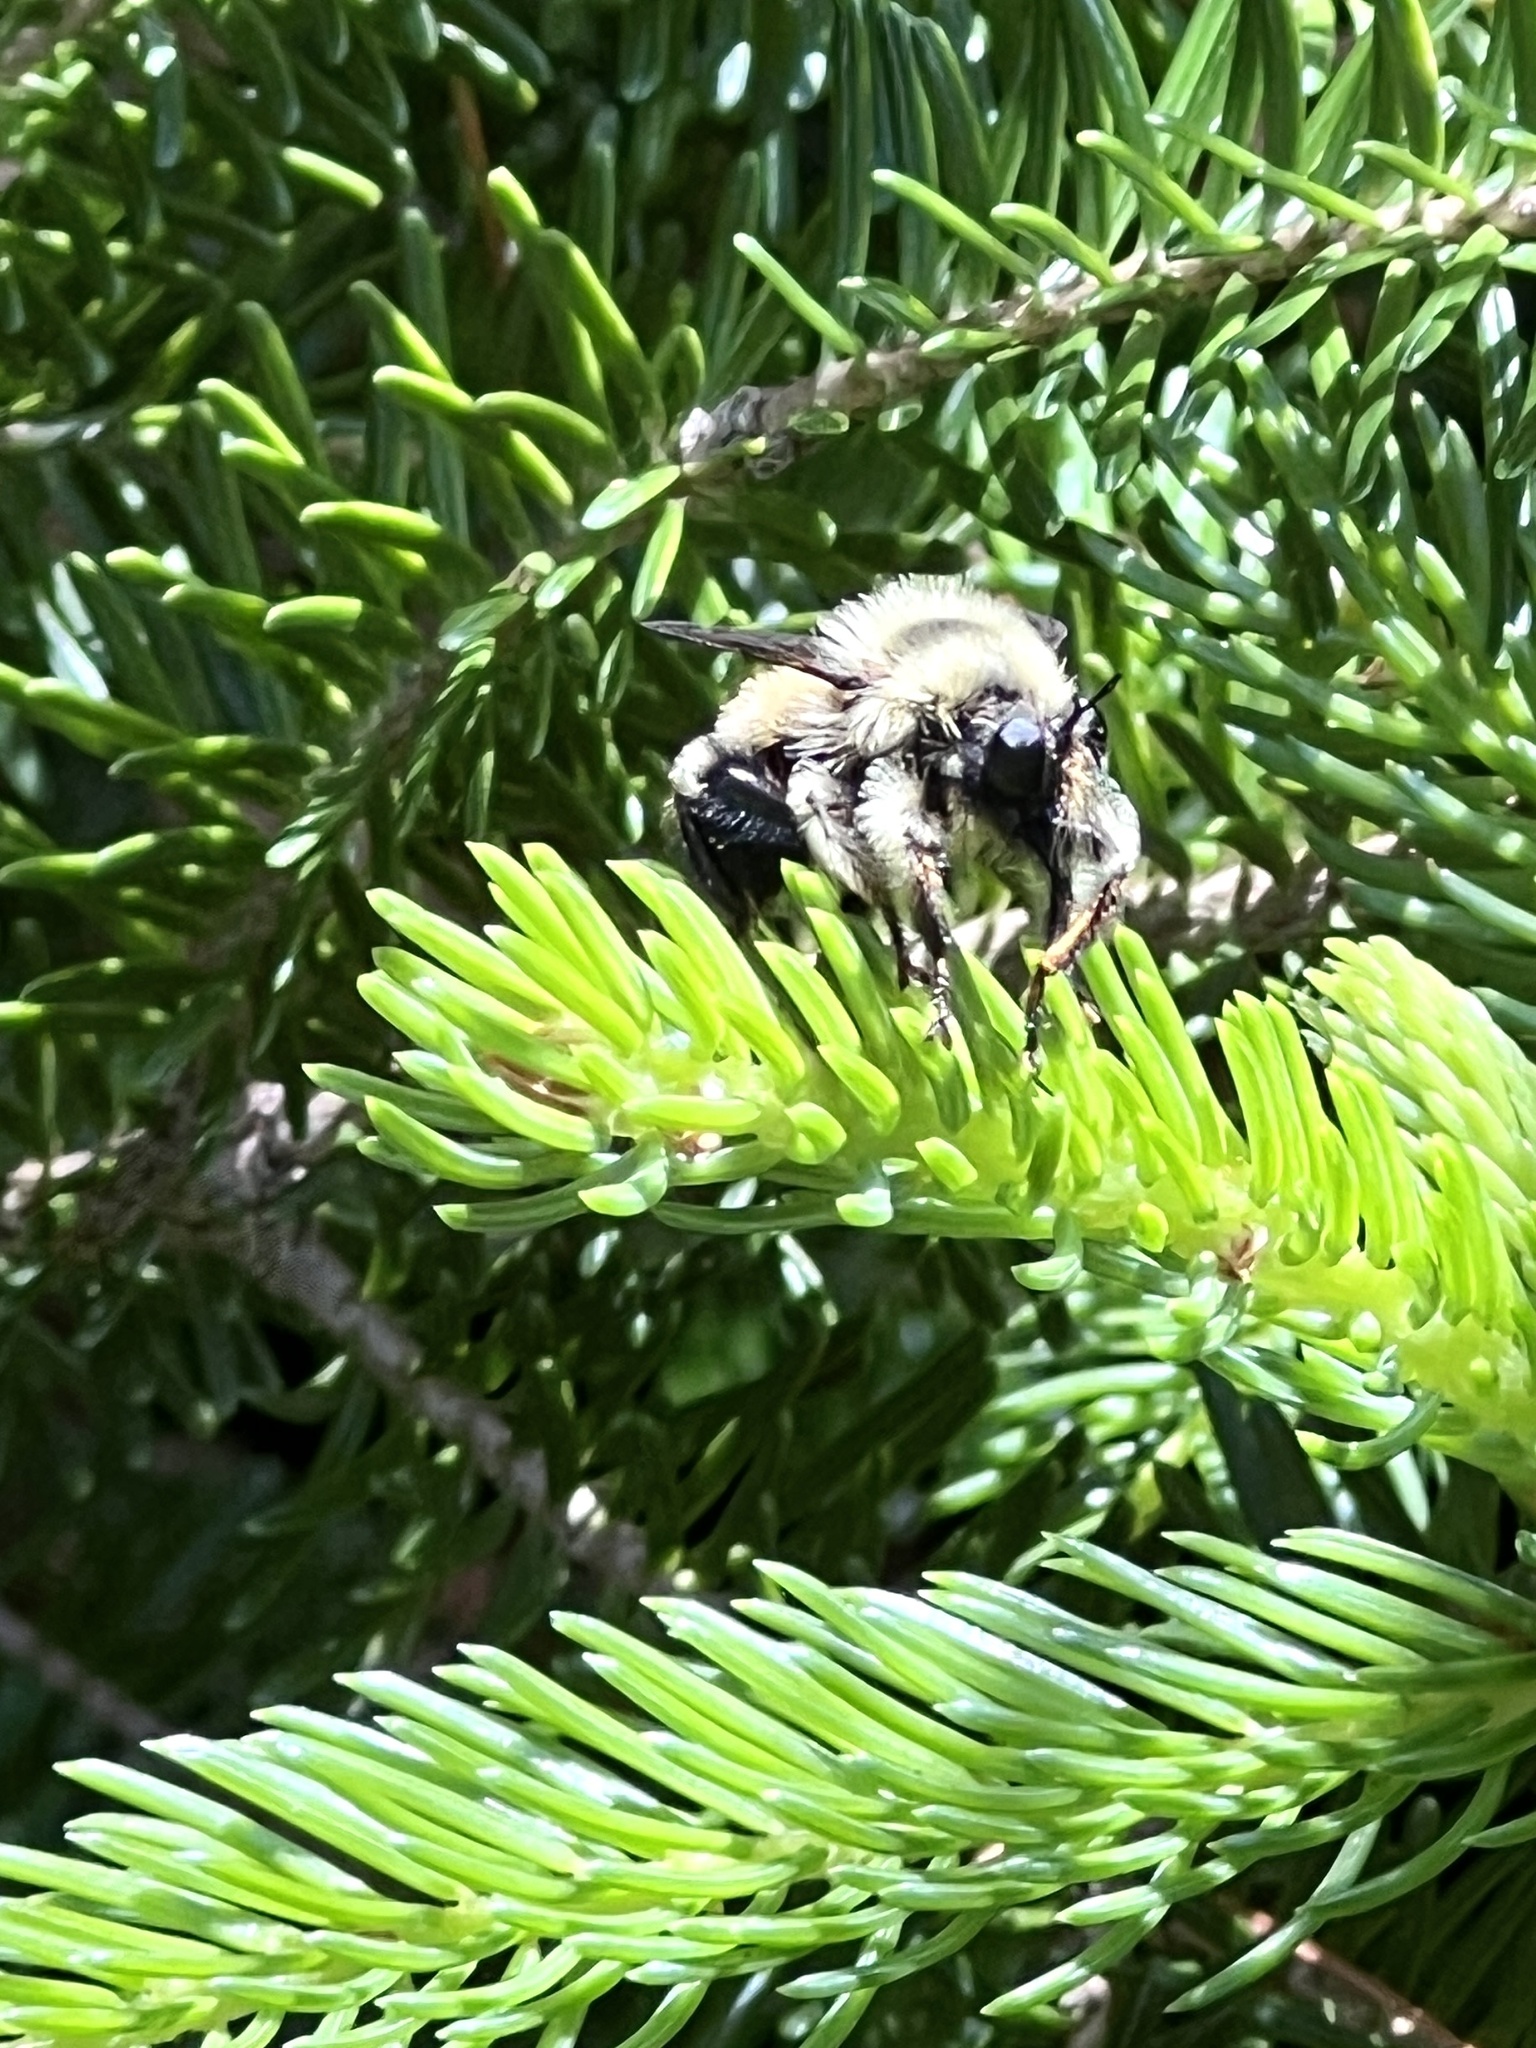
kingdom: Animalia
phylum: Arthropoda
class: Insecta
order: Diptera
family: Asilidae
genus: Laphria
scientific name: Laphria sacrator
